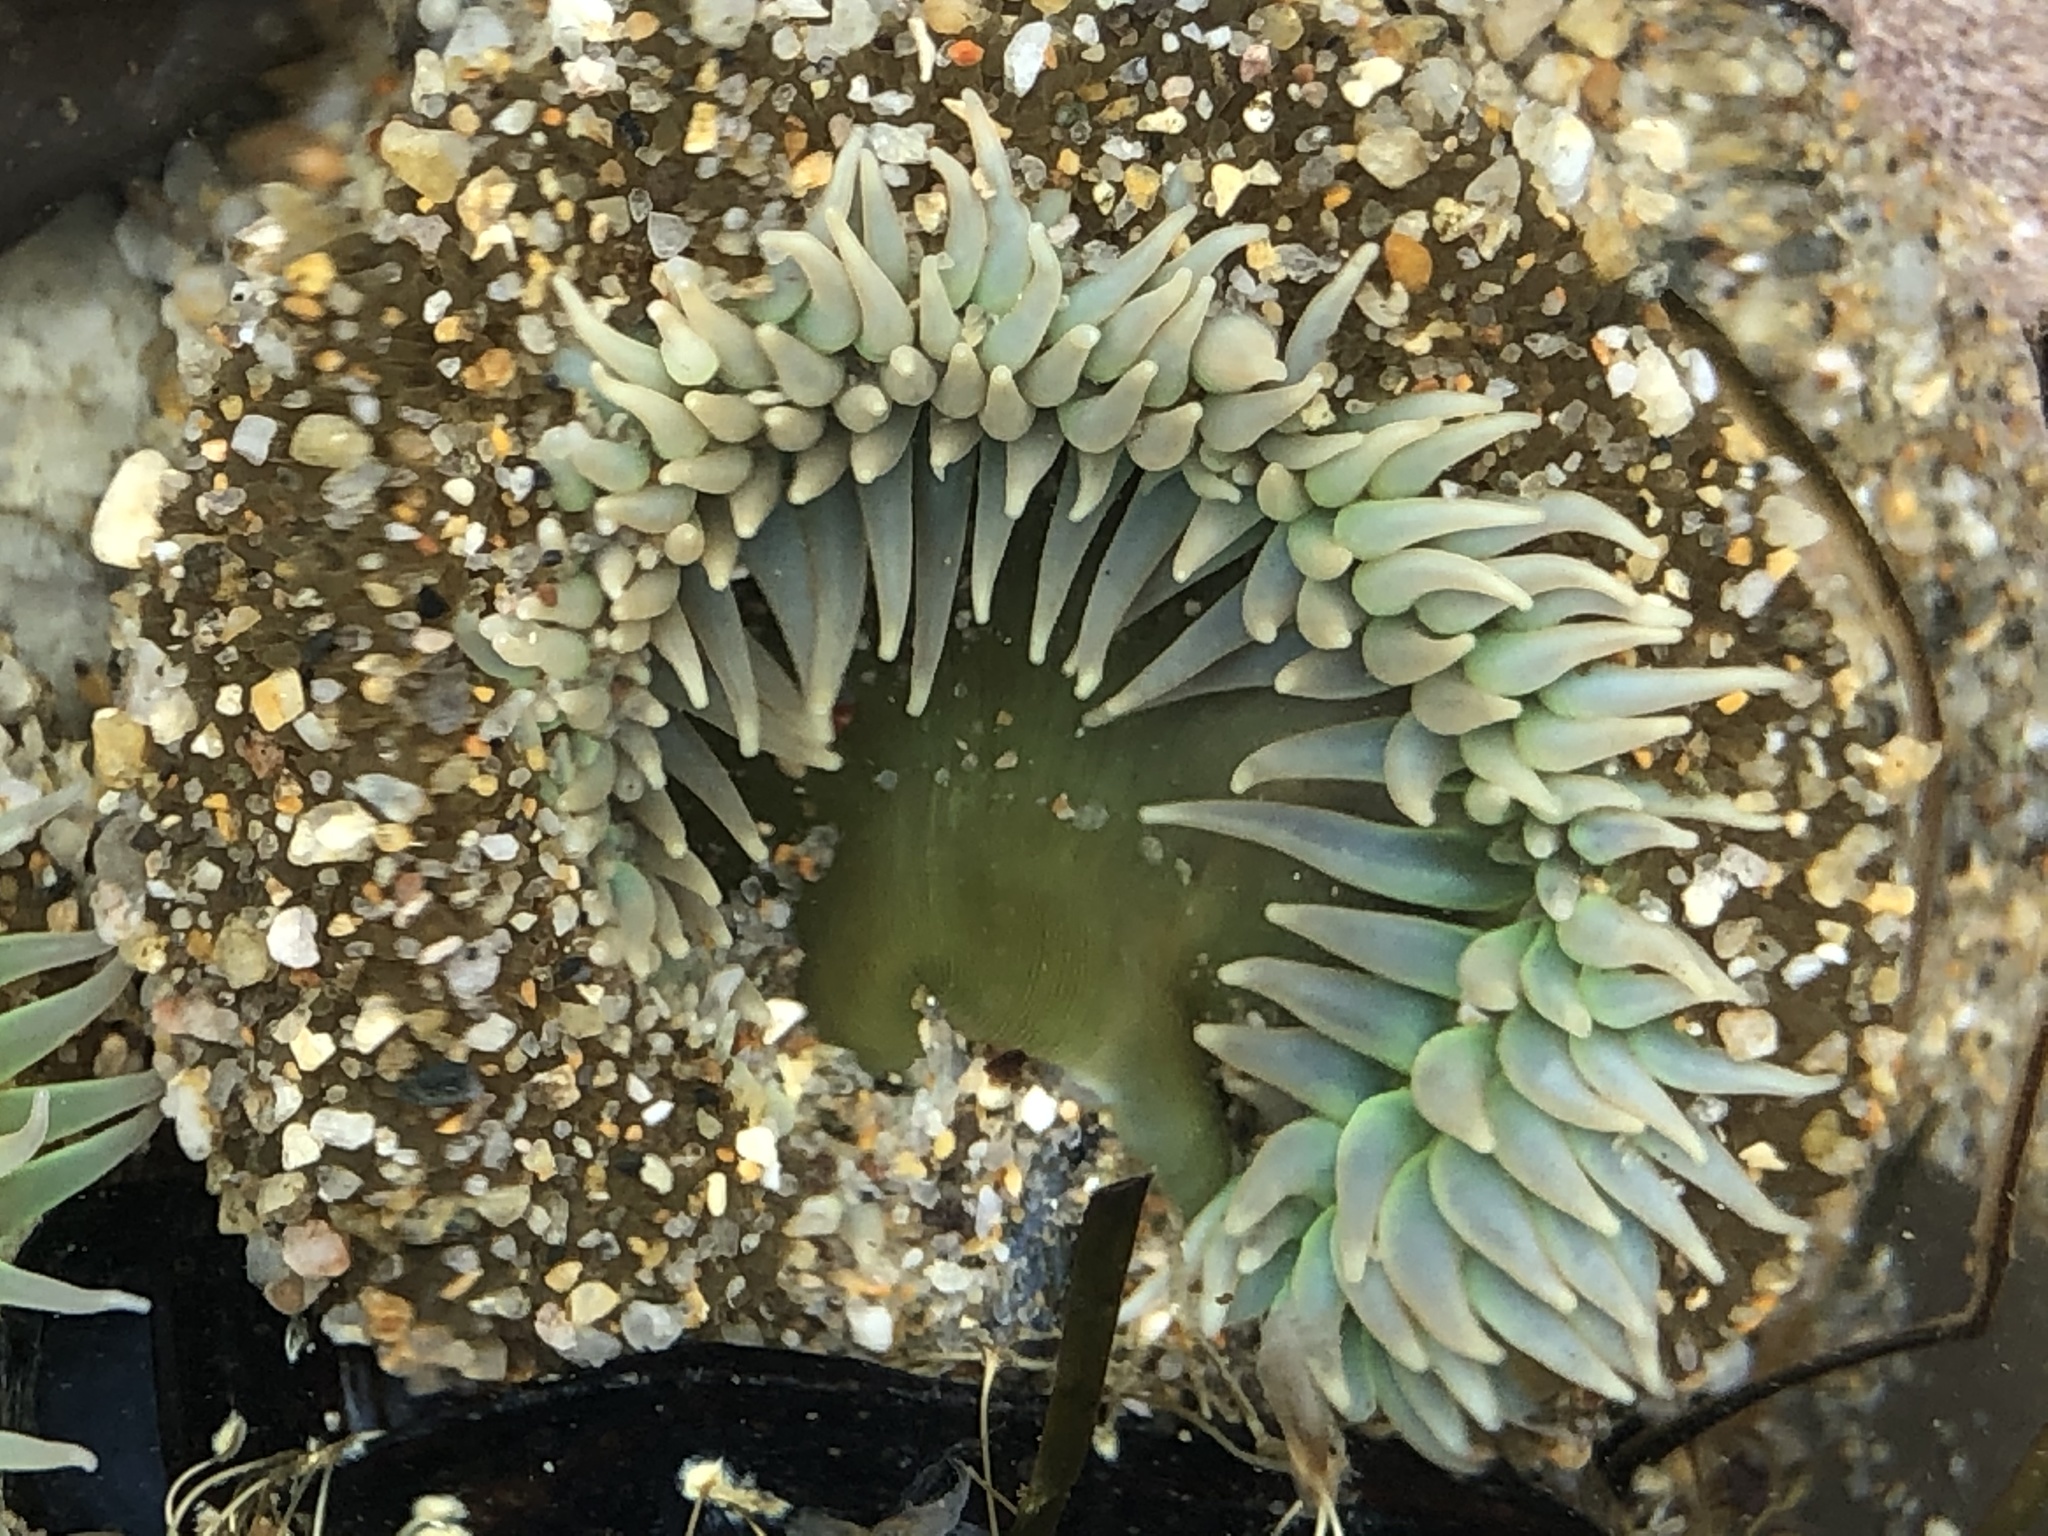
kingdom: Animalia
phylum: Cnidaria
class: Anthozoa
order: Actiniaria
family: Actiniidae
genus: Anthopleura
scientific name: Anthopleura xanthogrammica
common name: Giant green anemone
